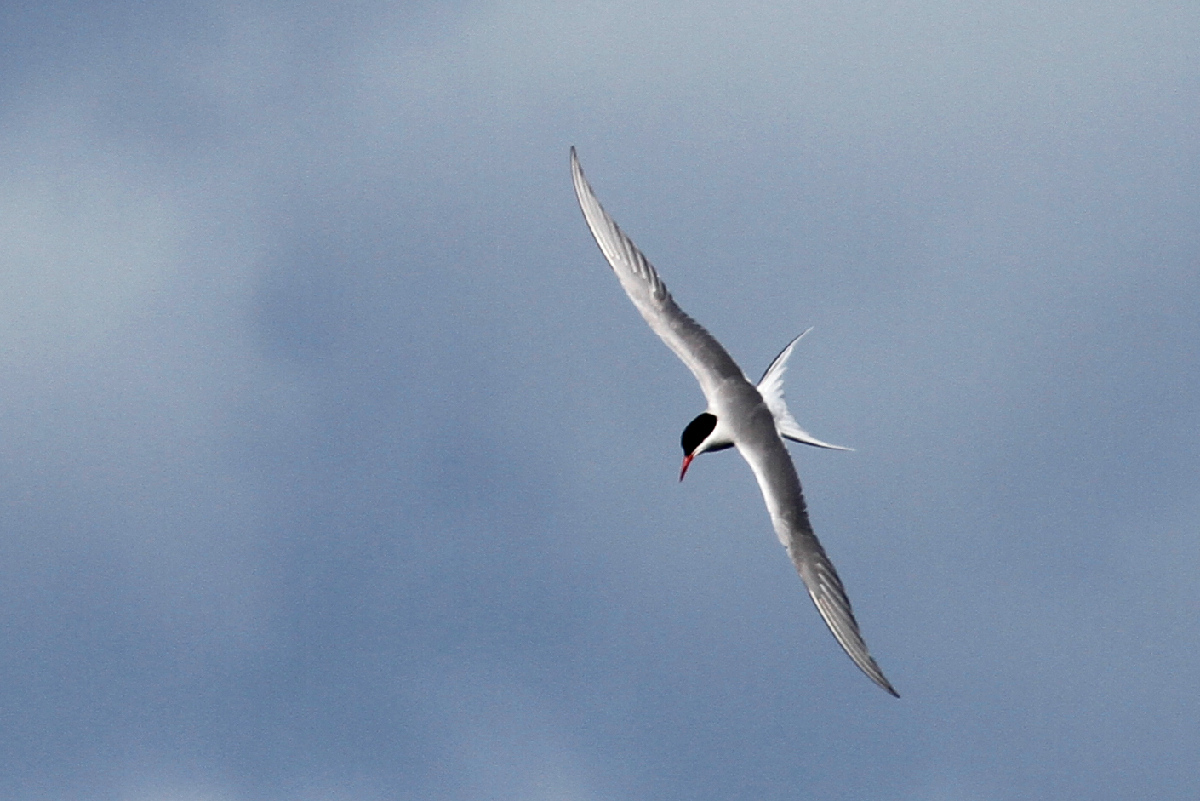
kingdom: Animalia
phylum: Chordata
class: Aves
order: Charadriiformes
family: Laridae
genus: Sterna
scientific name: Sterna paradisaea
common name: Arctic tern
